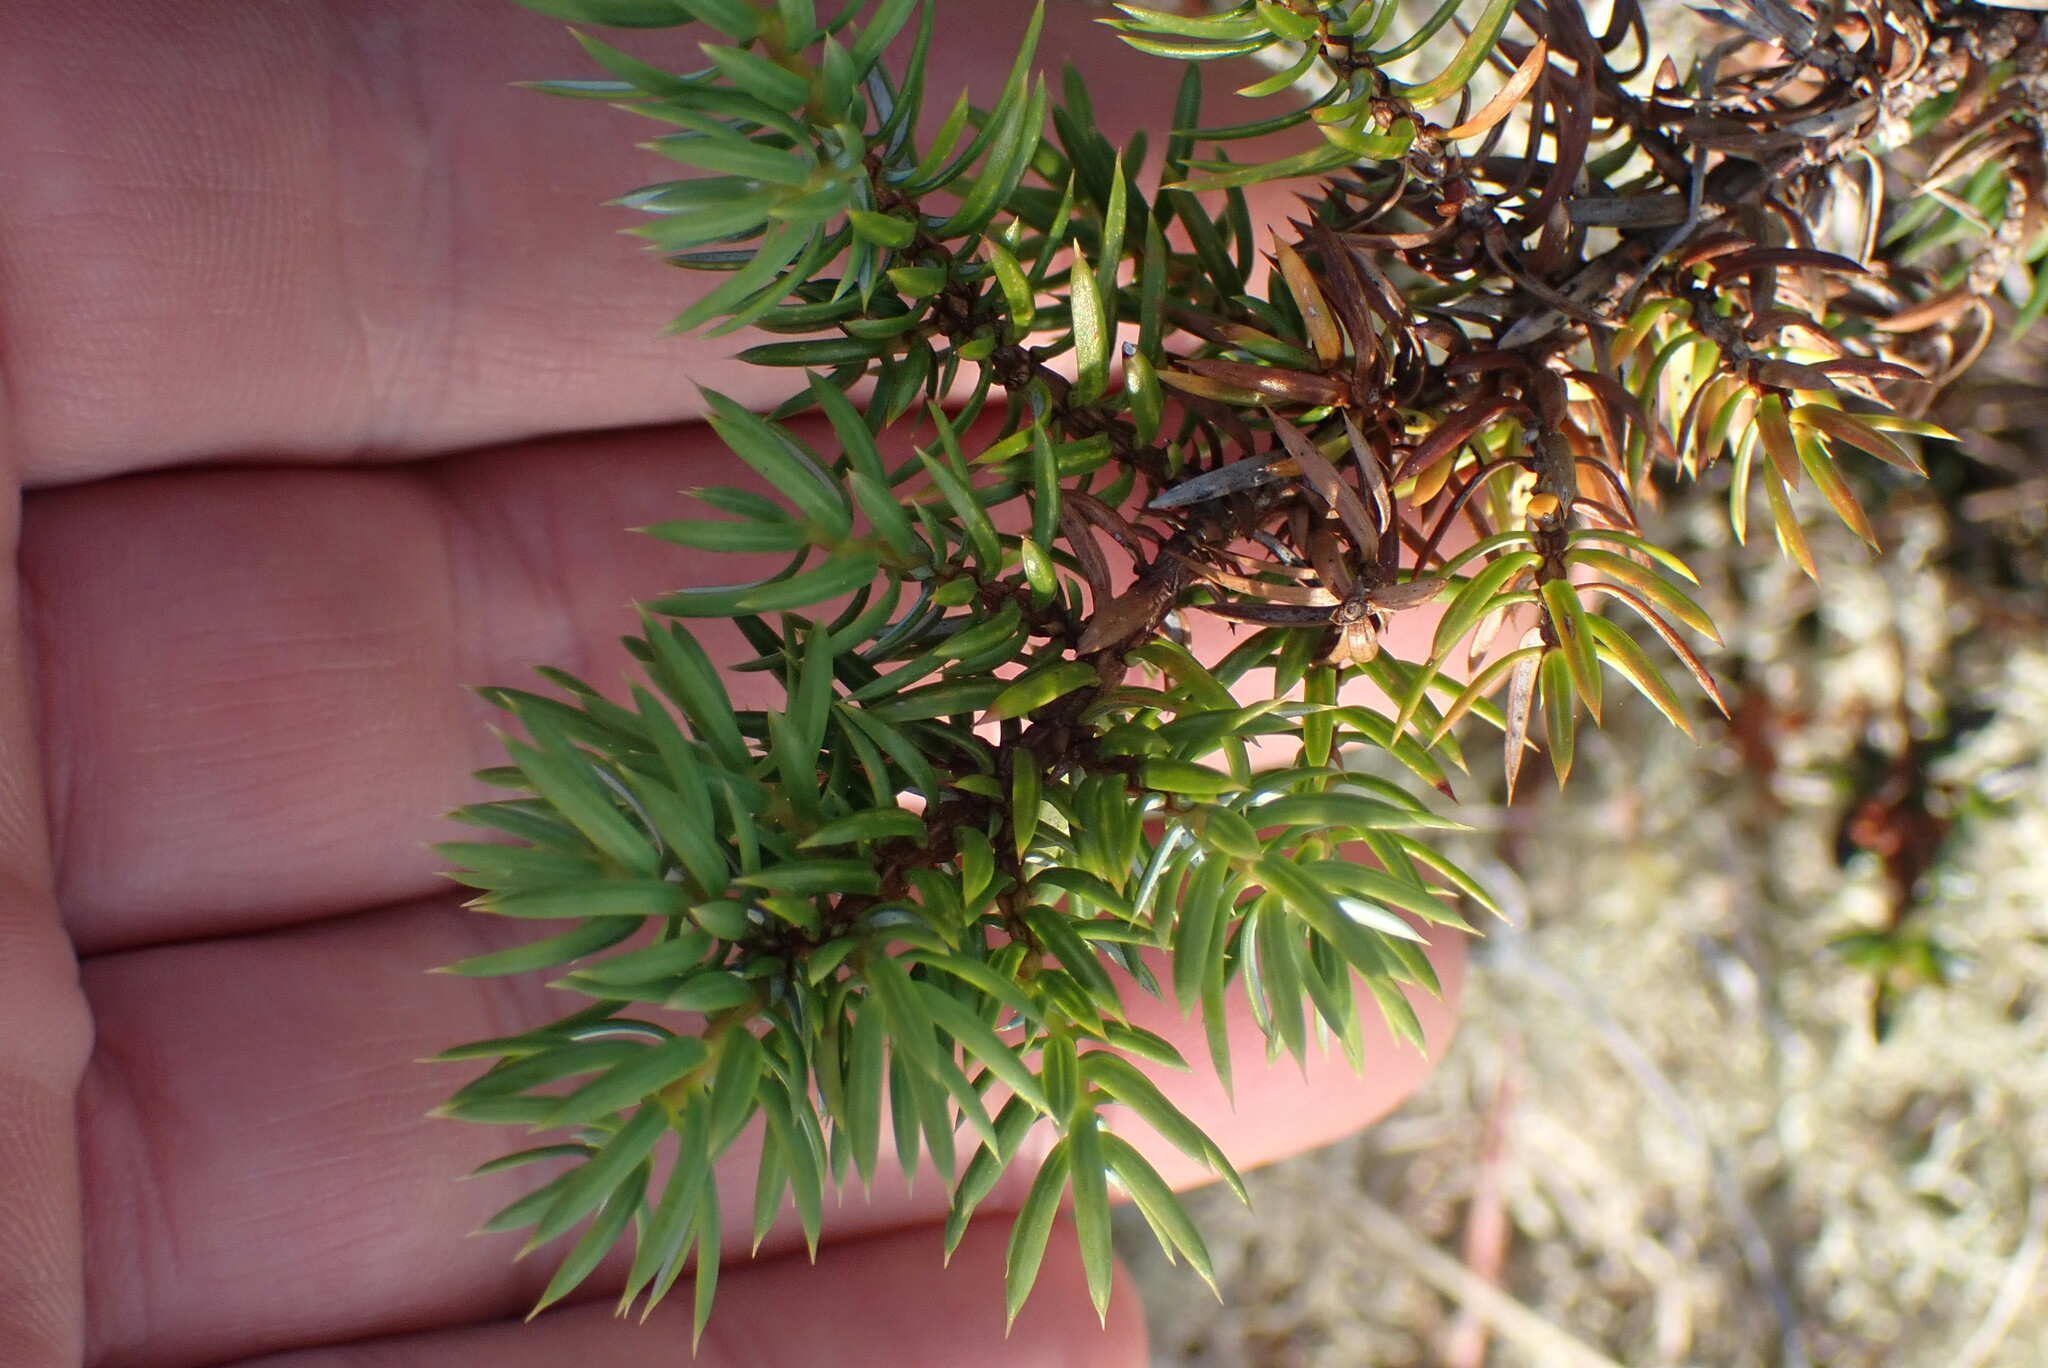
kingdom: Plantae
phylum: Tracheophyta
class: Pinopsida
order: Pinales
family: Cupressaceae
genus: Juniperus
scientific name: Juniperus communis
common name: Common juniper
